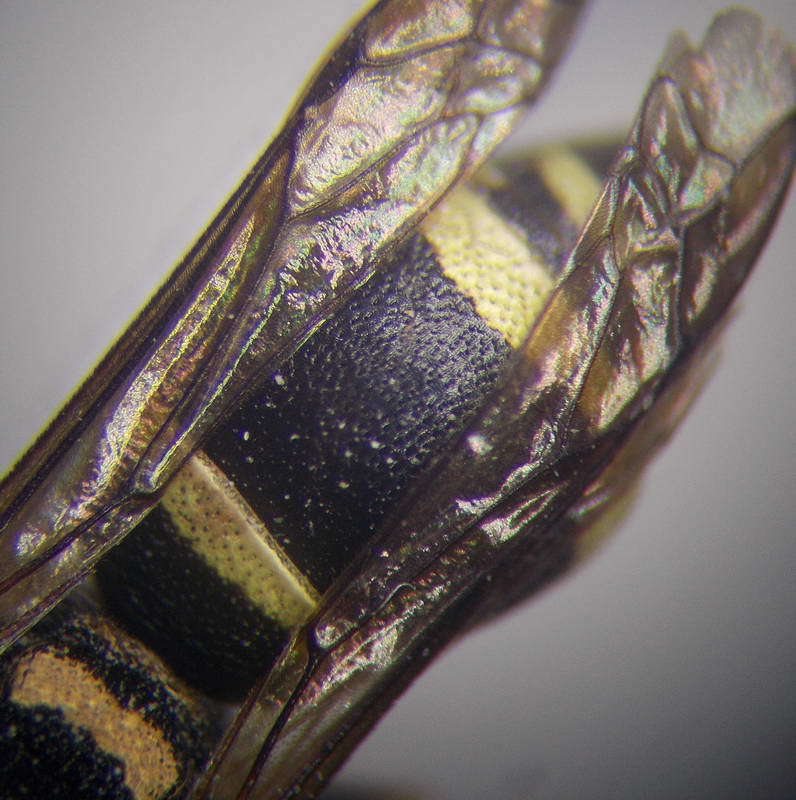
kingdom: Animalia
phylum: Arthropoda
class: Insecta
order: Hymenoptera
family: Eumenidae
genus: Antepipona
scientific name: Antepipona deflenda
